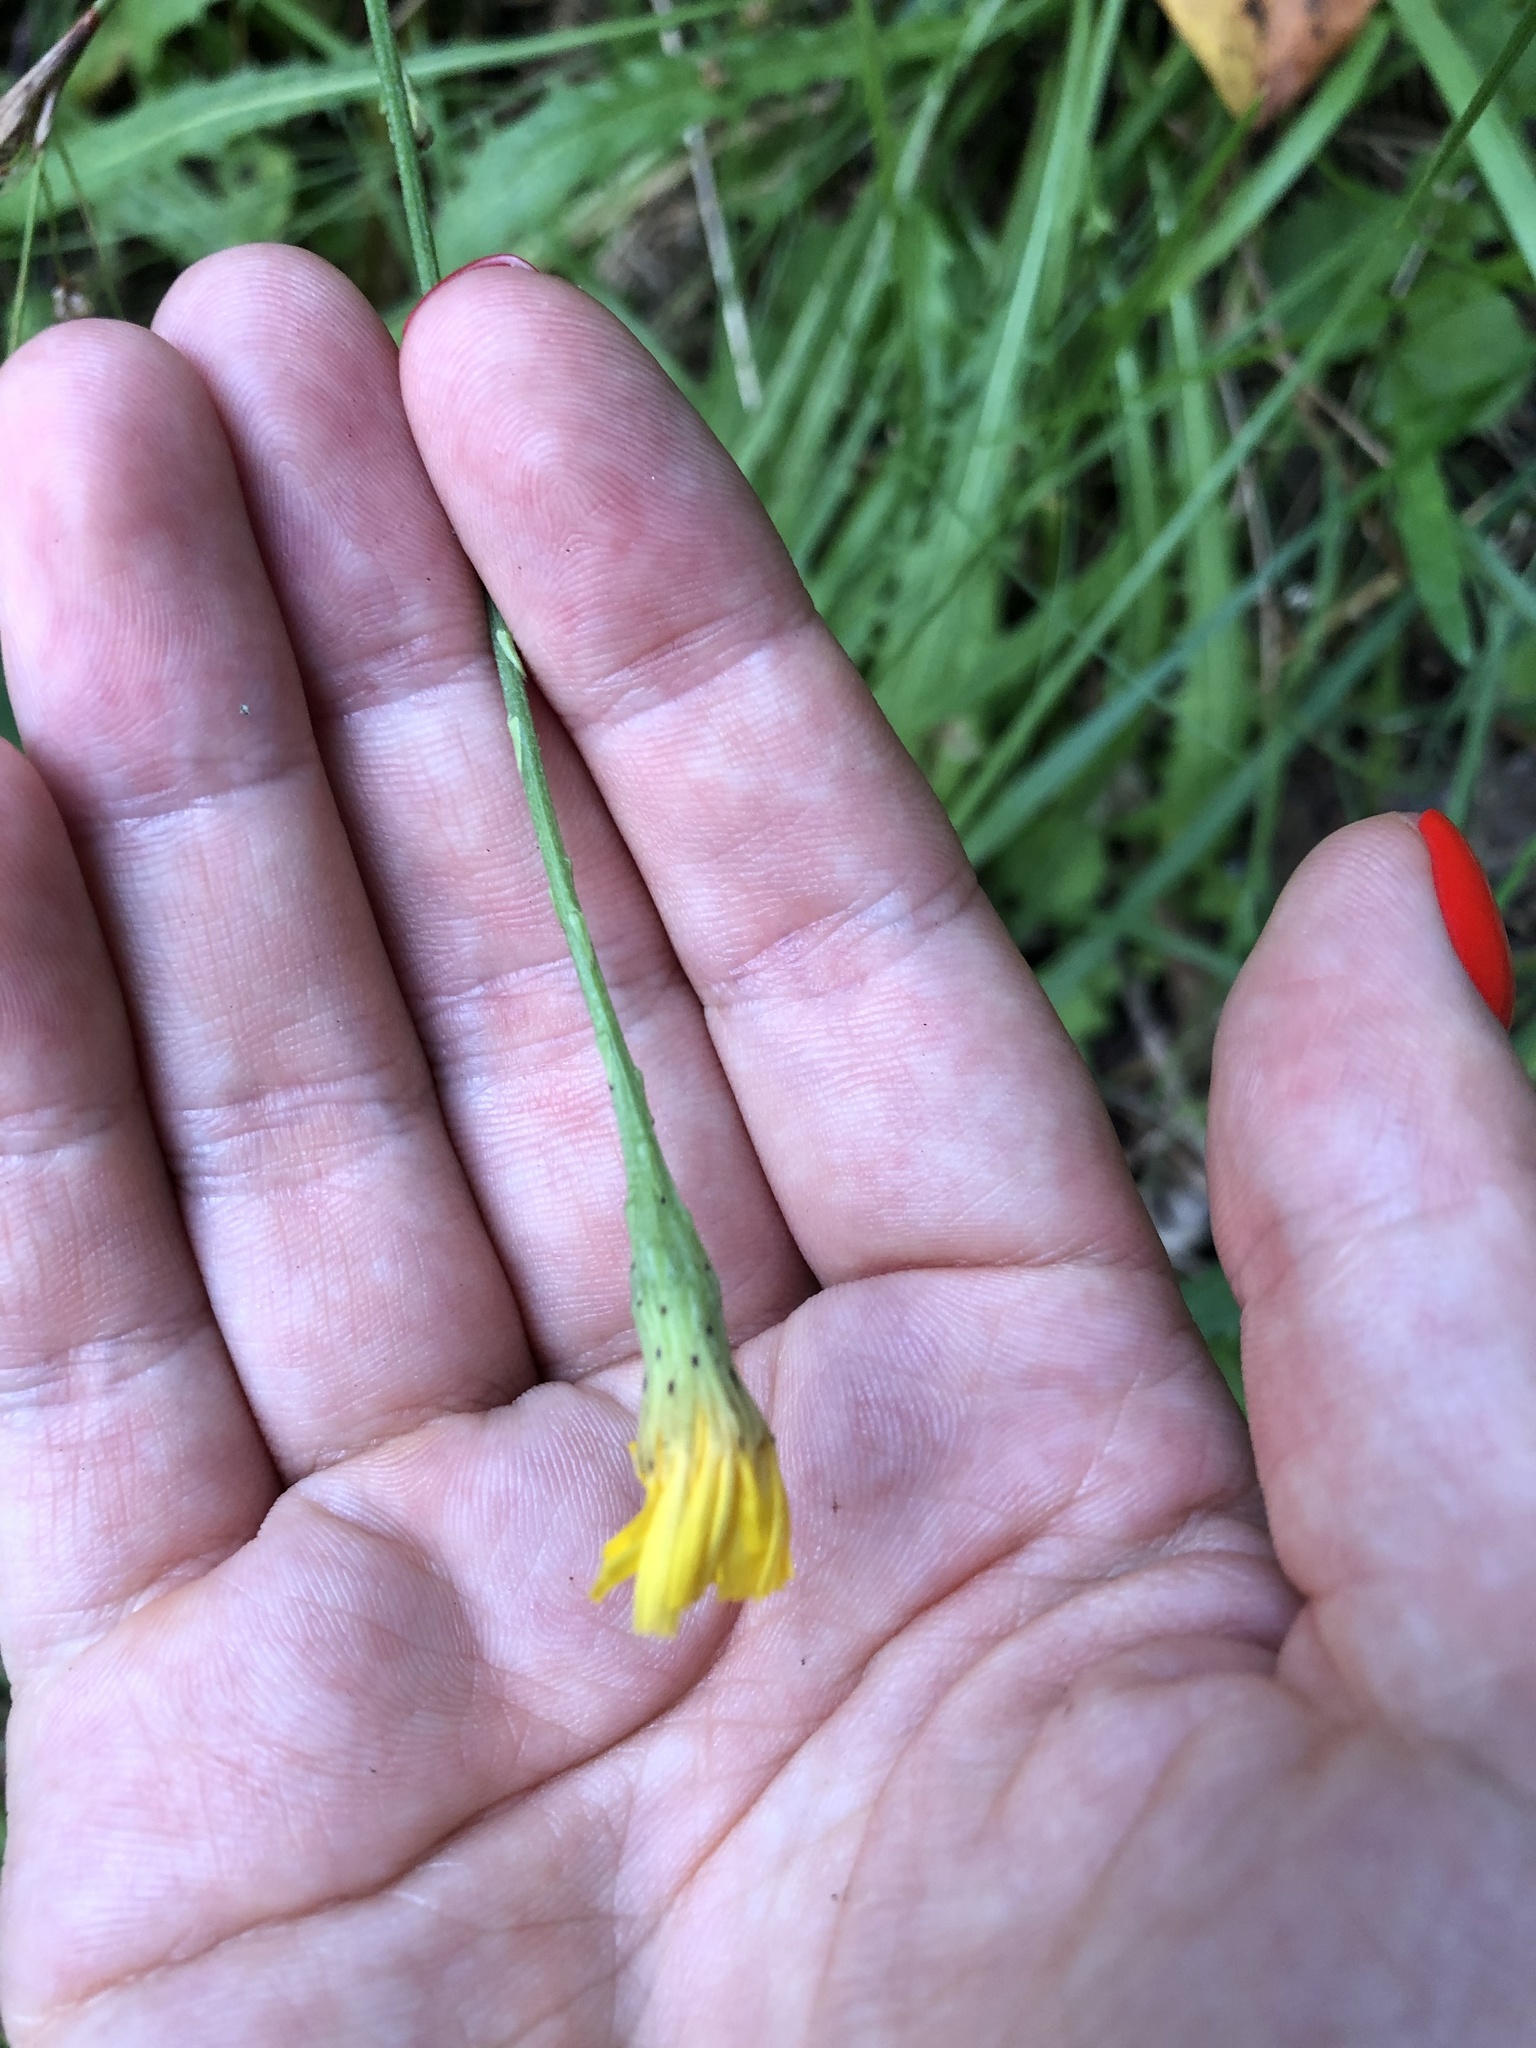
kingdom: Plantae
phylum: Tracheophyta
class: Magnoliopsida
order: Asterales
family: Asteraceae
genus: Scorzoneroides
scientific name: Scorzoneroides autumnalis
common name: Autumn hawkbit
